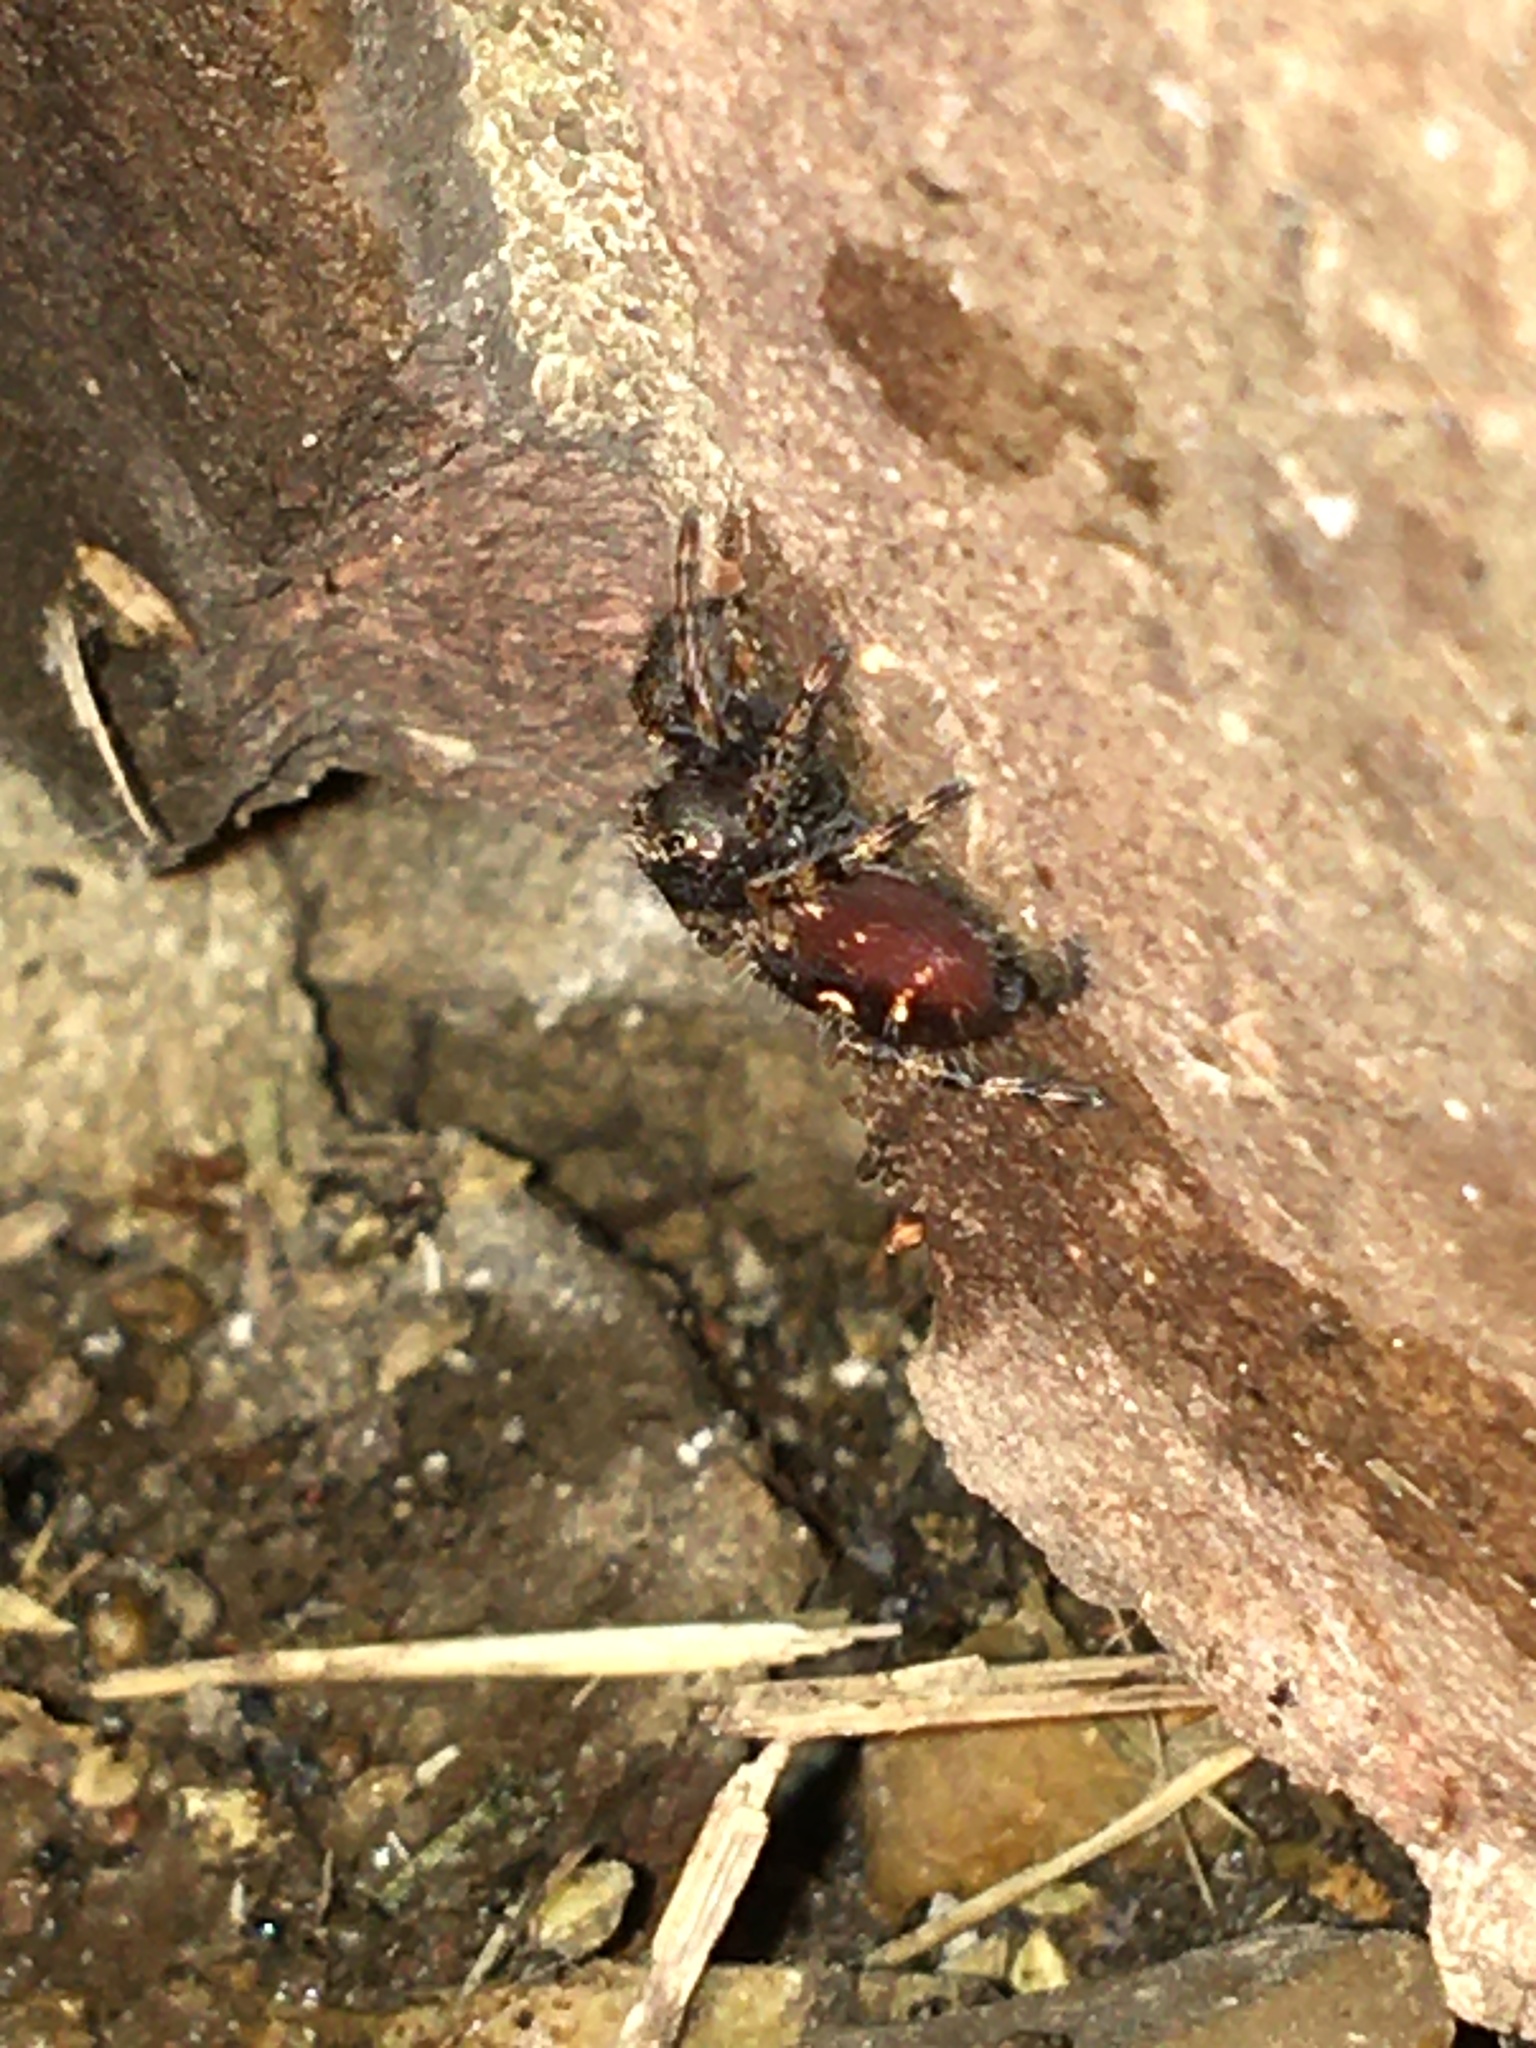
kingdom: Animalia
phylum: Arthropoda
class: Arachnida
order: Araneae
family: Salticidae
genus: Phidippus
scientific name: Phidippus audax
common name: Bold jumper
